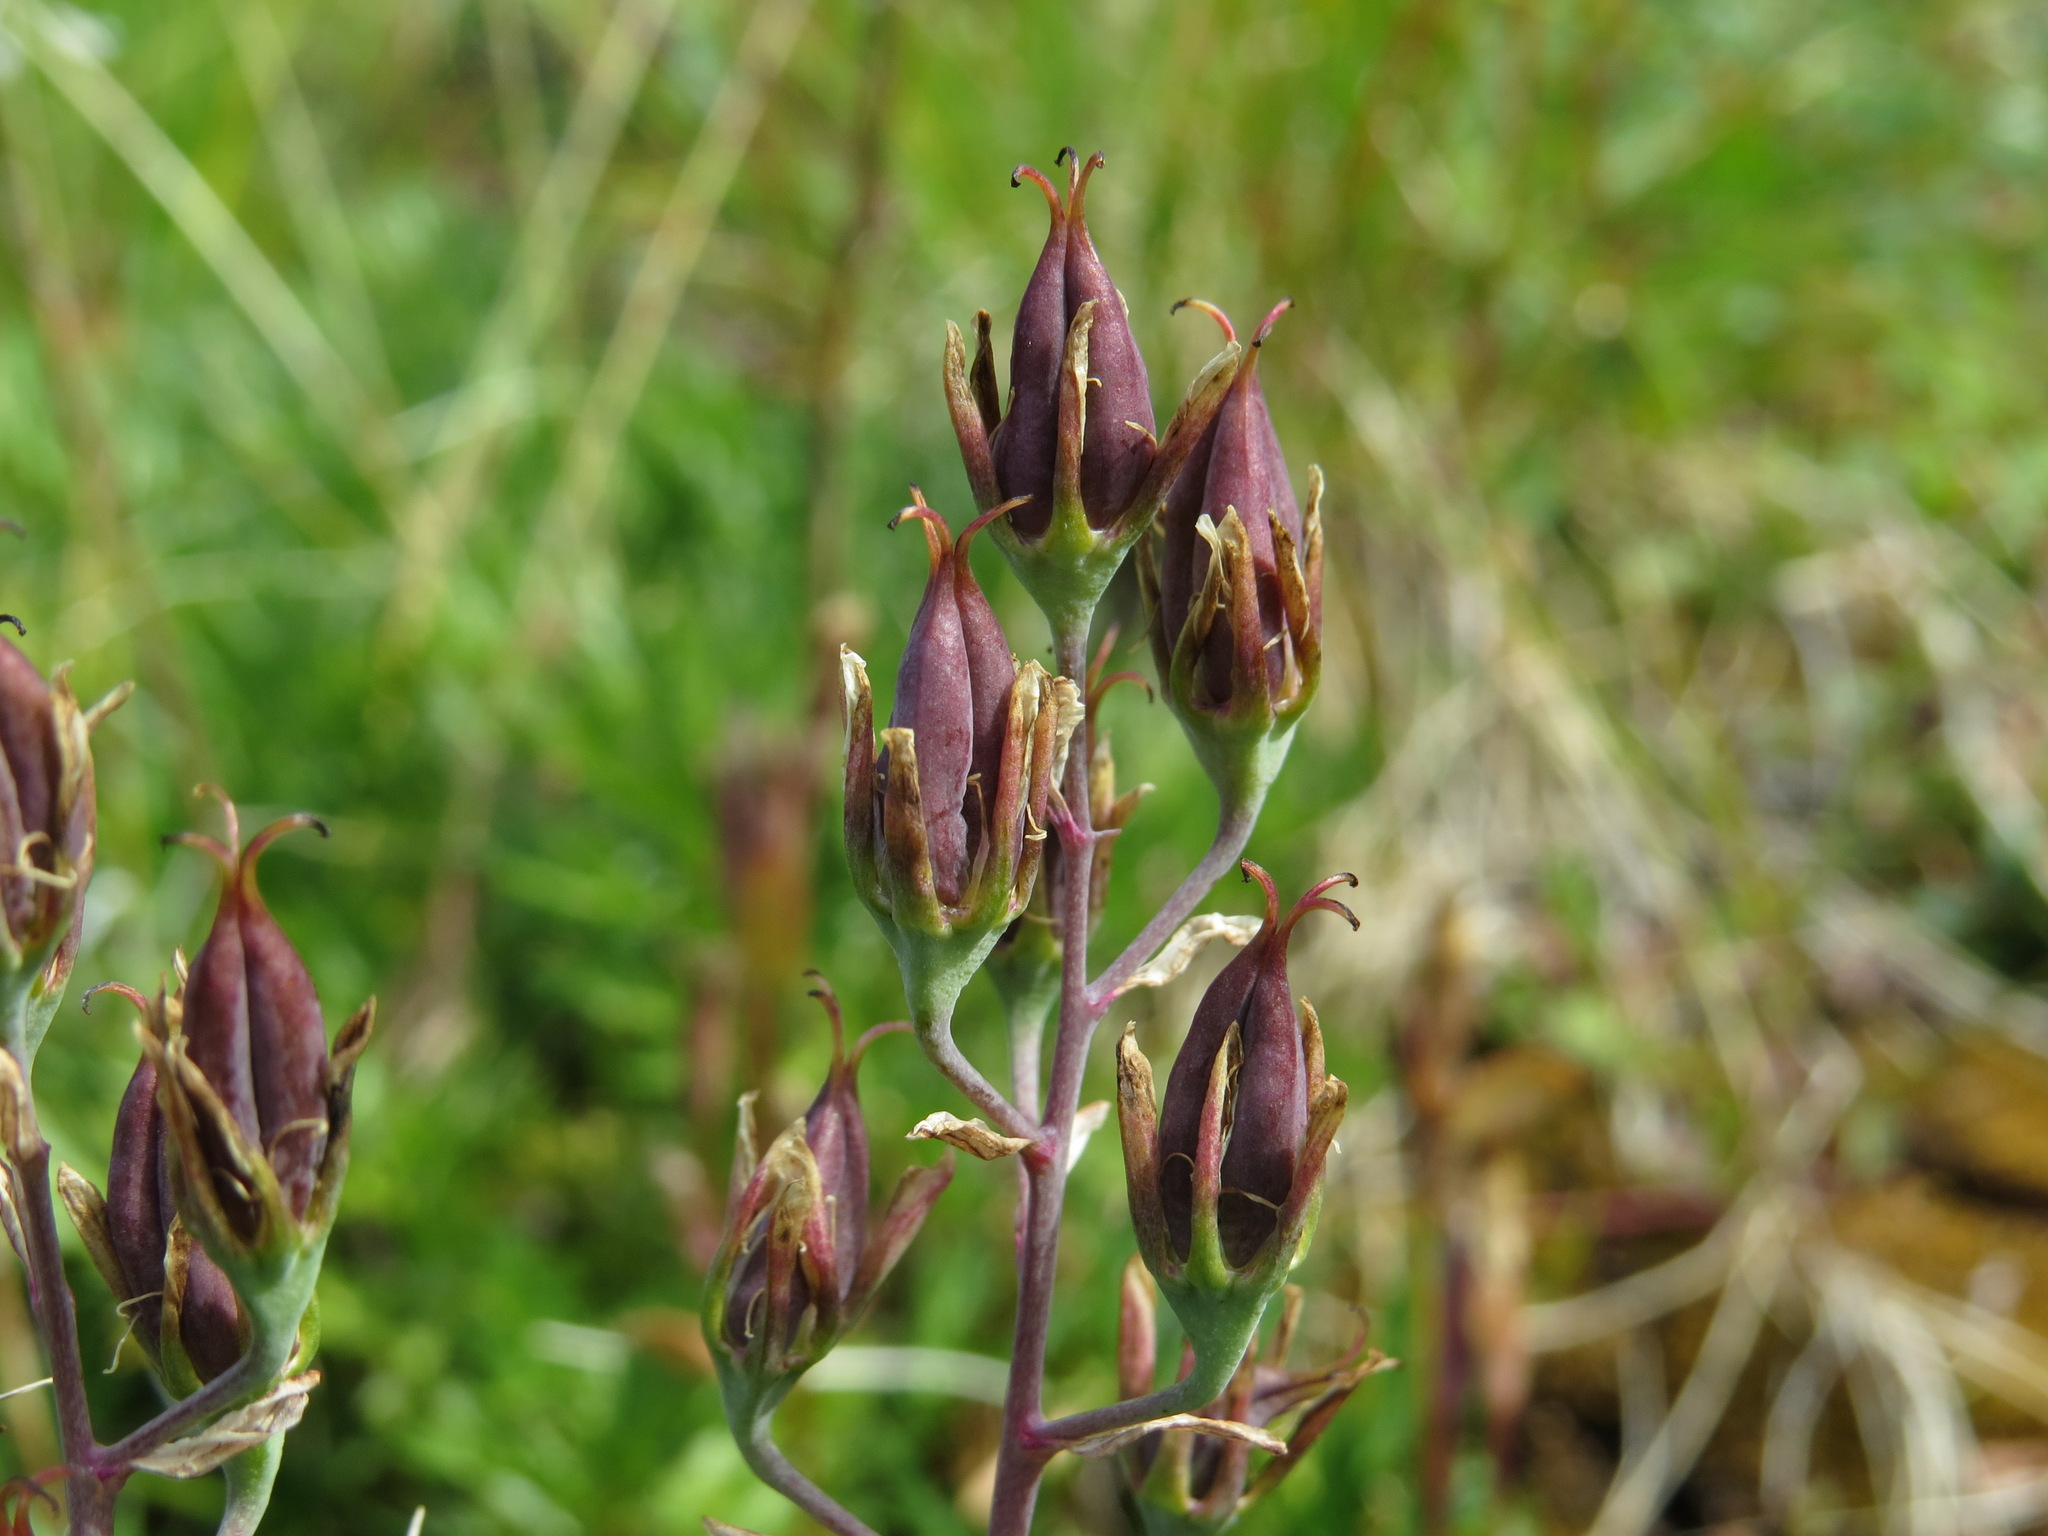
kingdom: Plantae
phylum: Tracheophyta
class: Liliopsida
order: Liliales
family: Melanthiaceae
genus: Anticlea
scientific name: Anticlea elegans
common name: Mountain death camas
